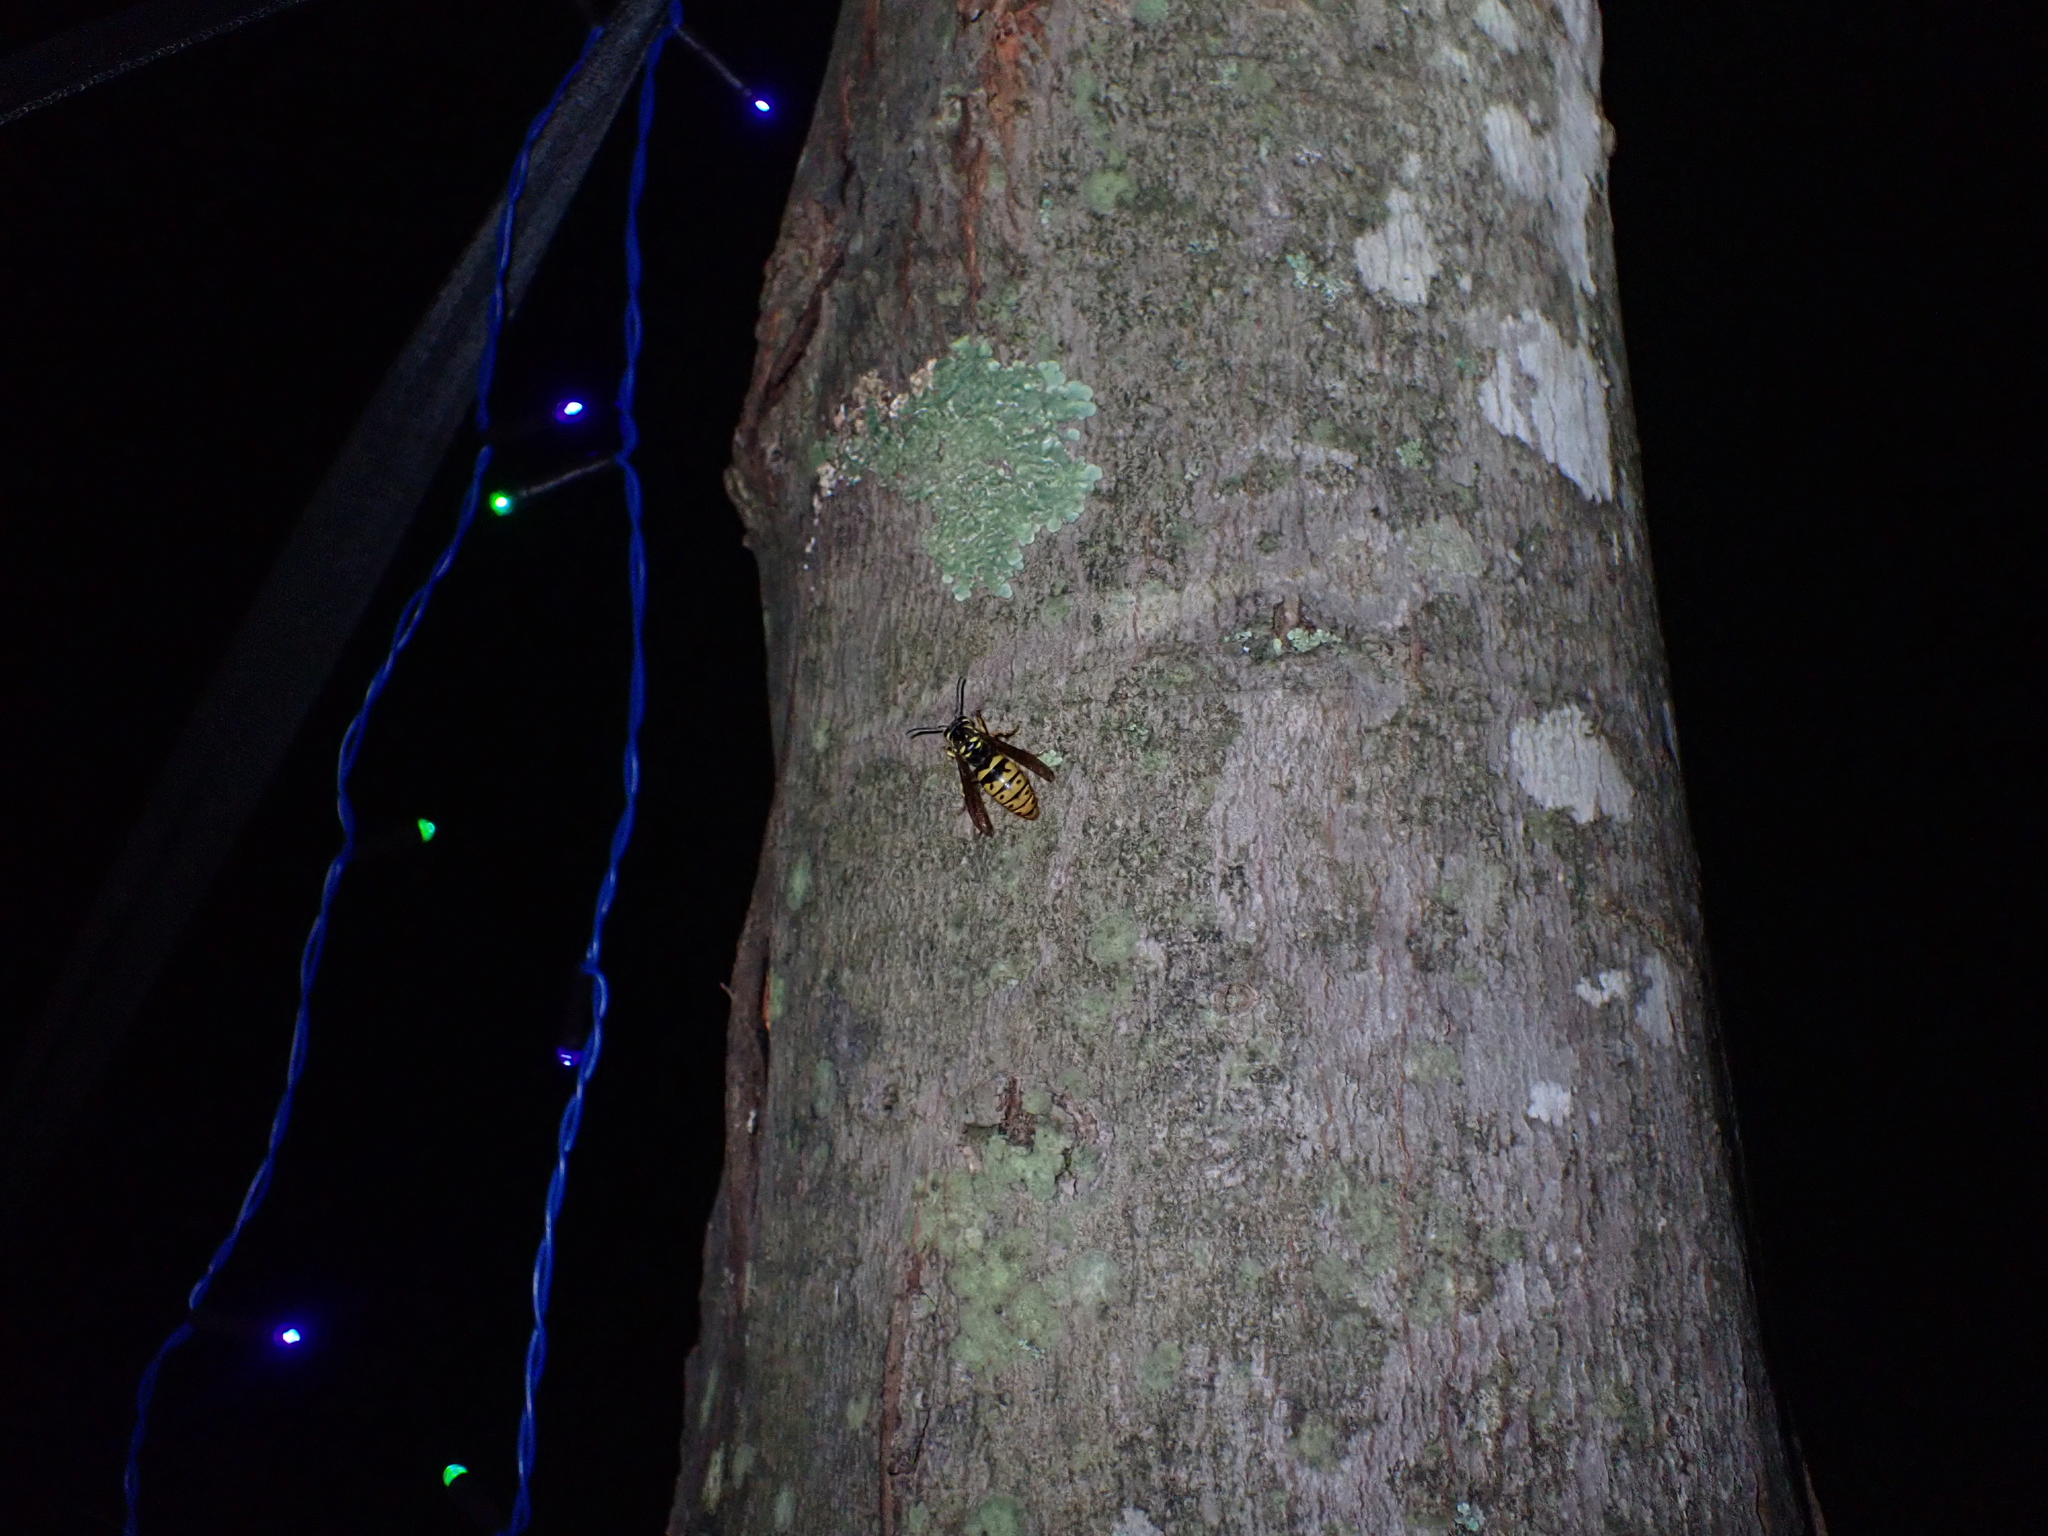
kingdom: Animalia
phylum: Arthropoda
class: Insecta
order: Hymenoptera
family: Vespidae
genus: Vespula
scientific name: Vespula flavopilosa
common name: Downy yellowjacket
